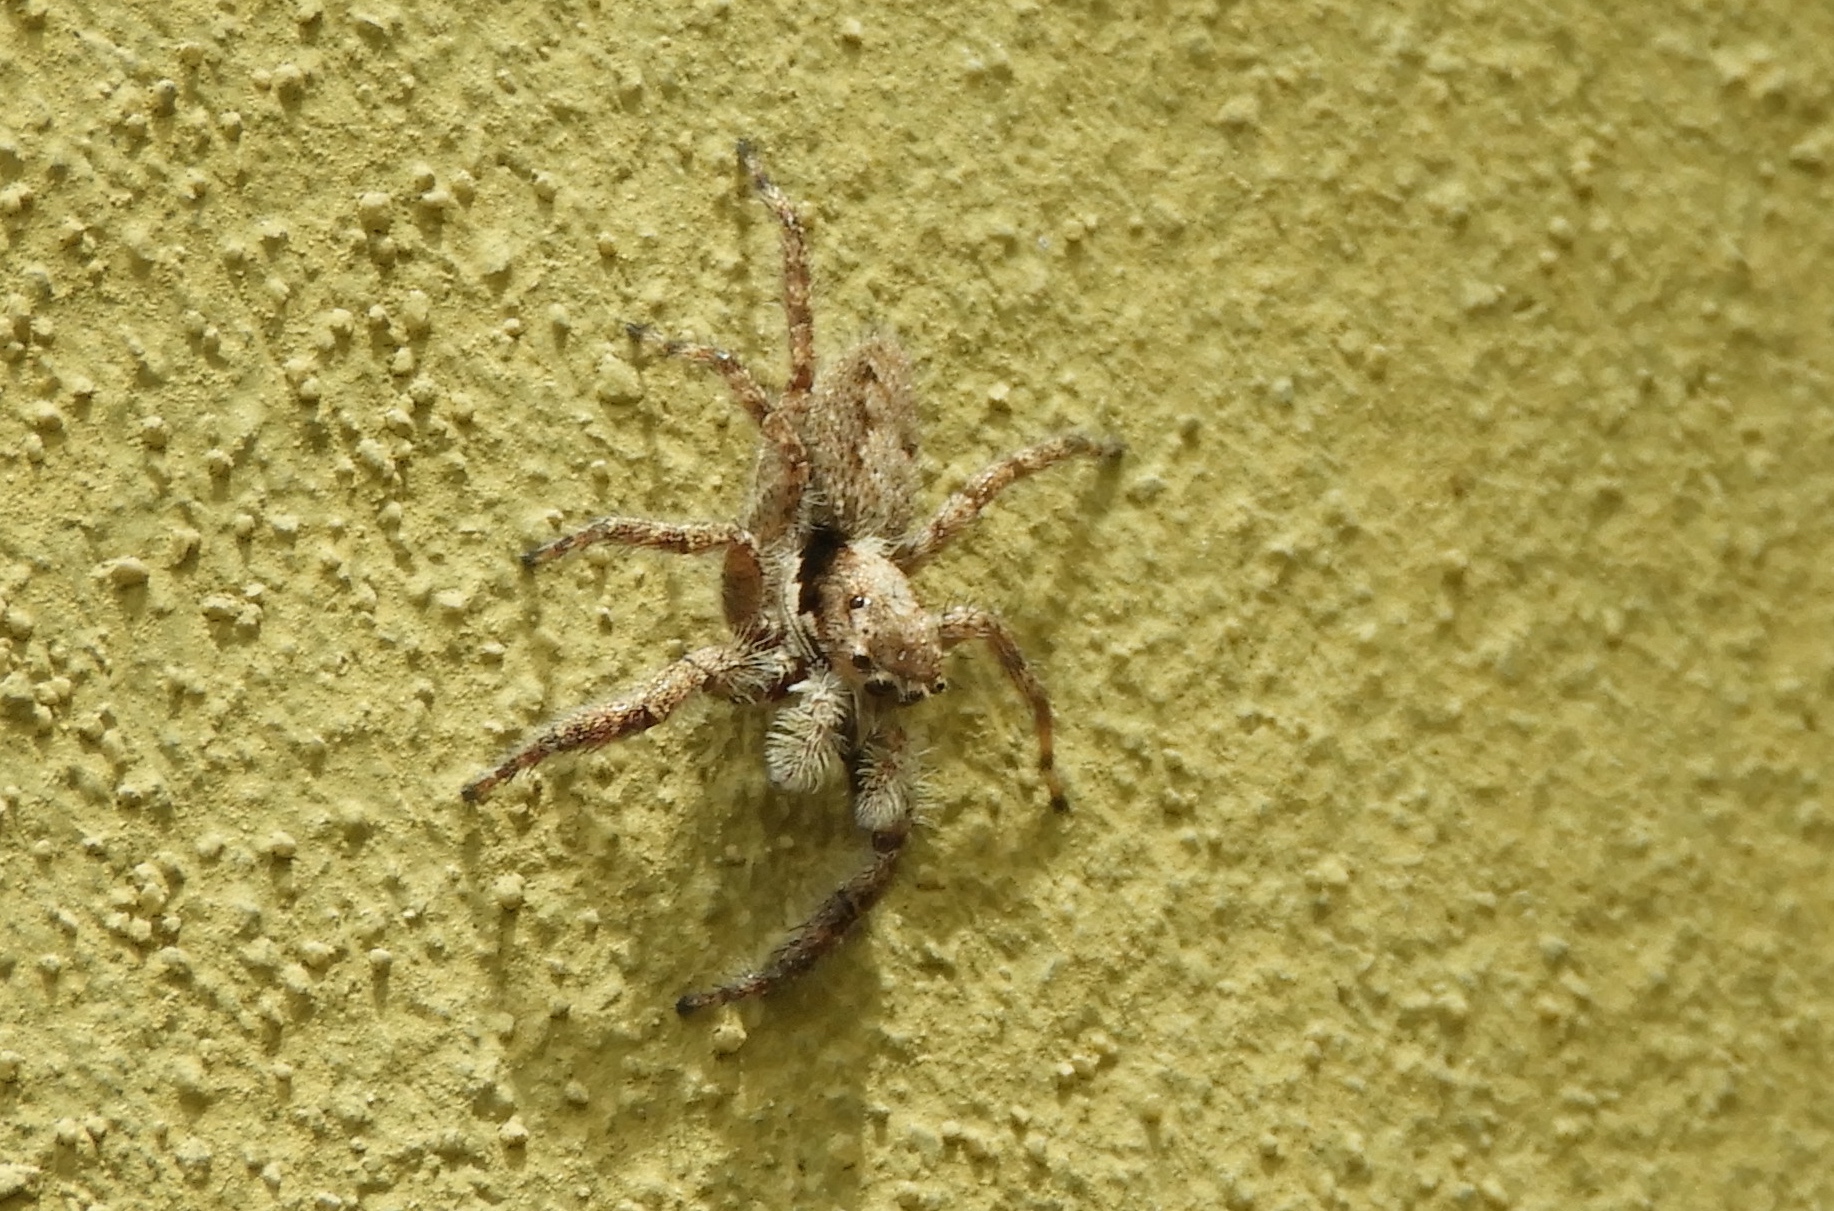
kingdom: Animalia
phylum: Arthropoda
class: Arachnida
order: Araneae
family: Salticidae
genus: Balmaceda
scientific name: Balmaceda
